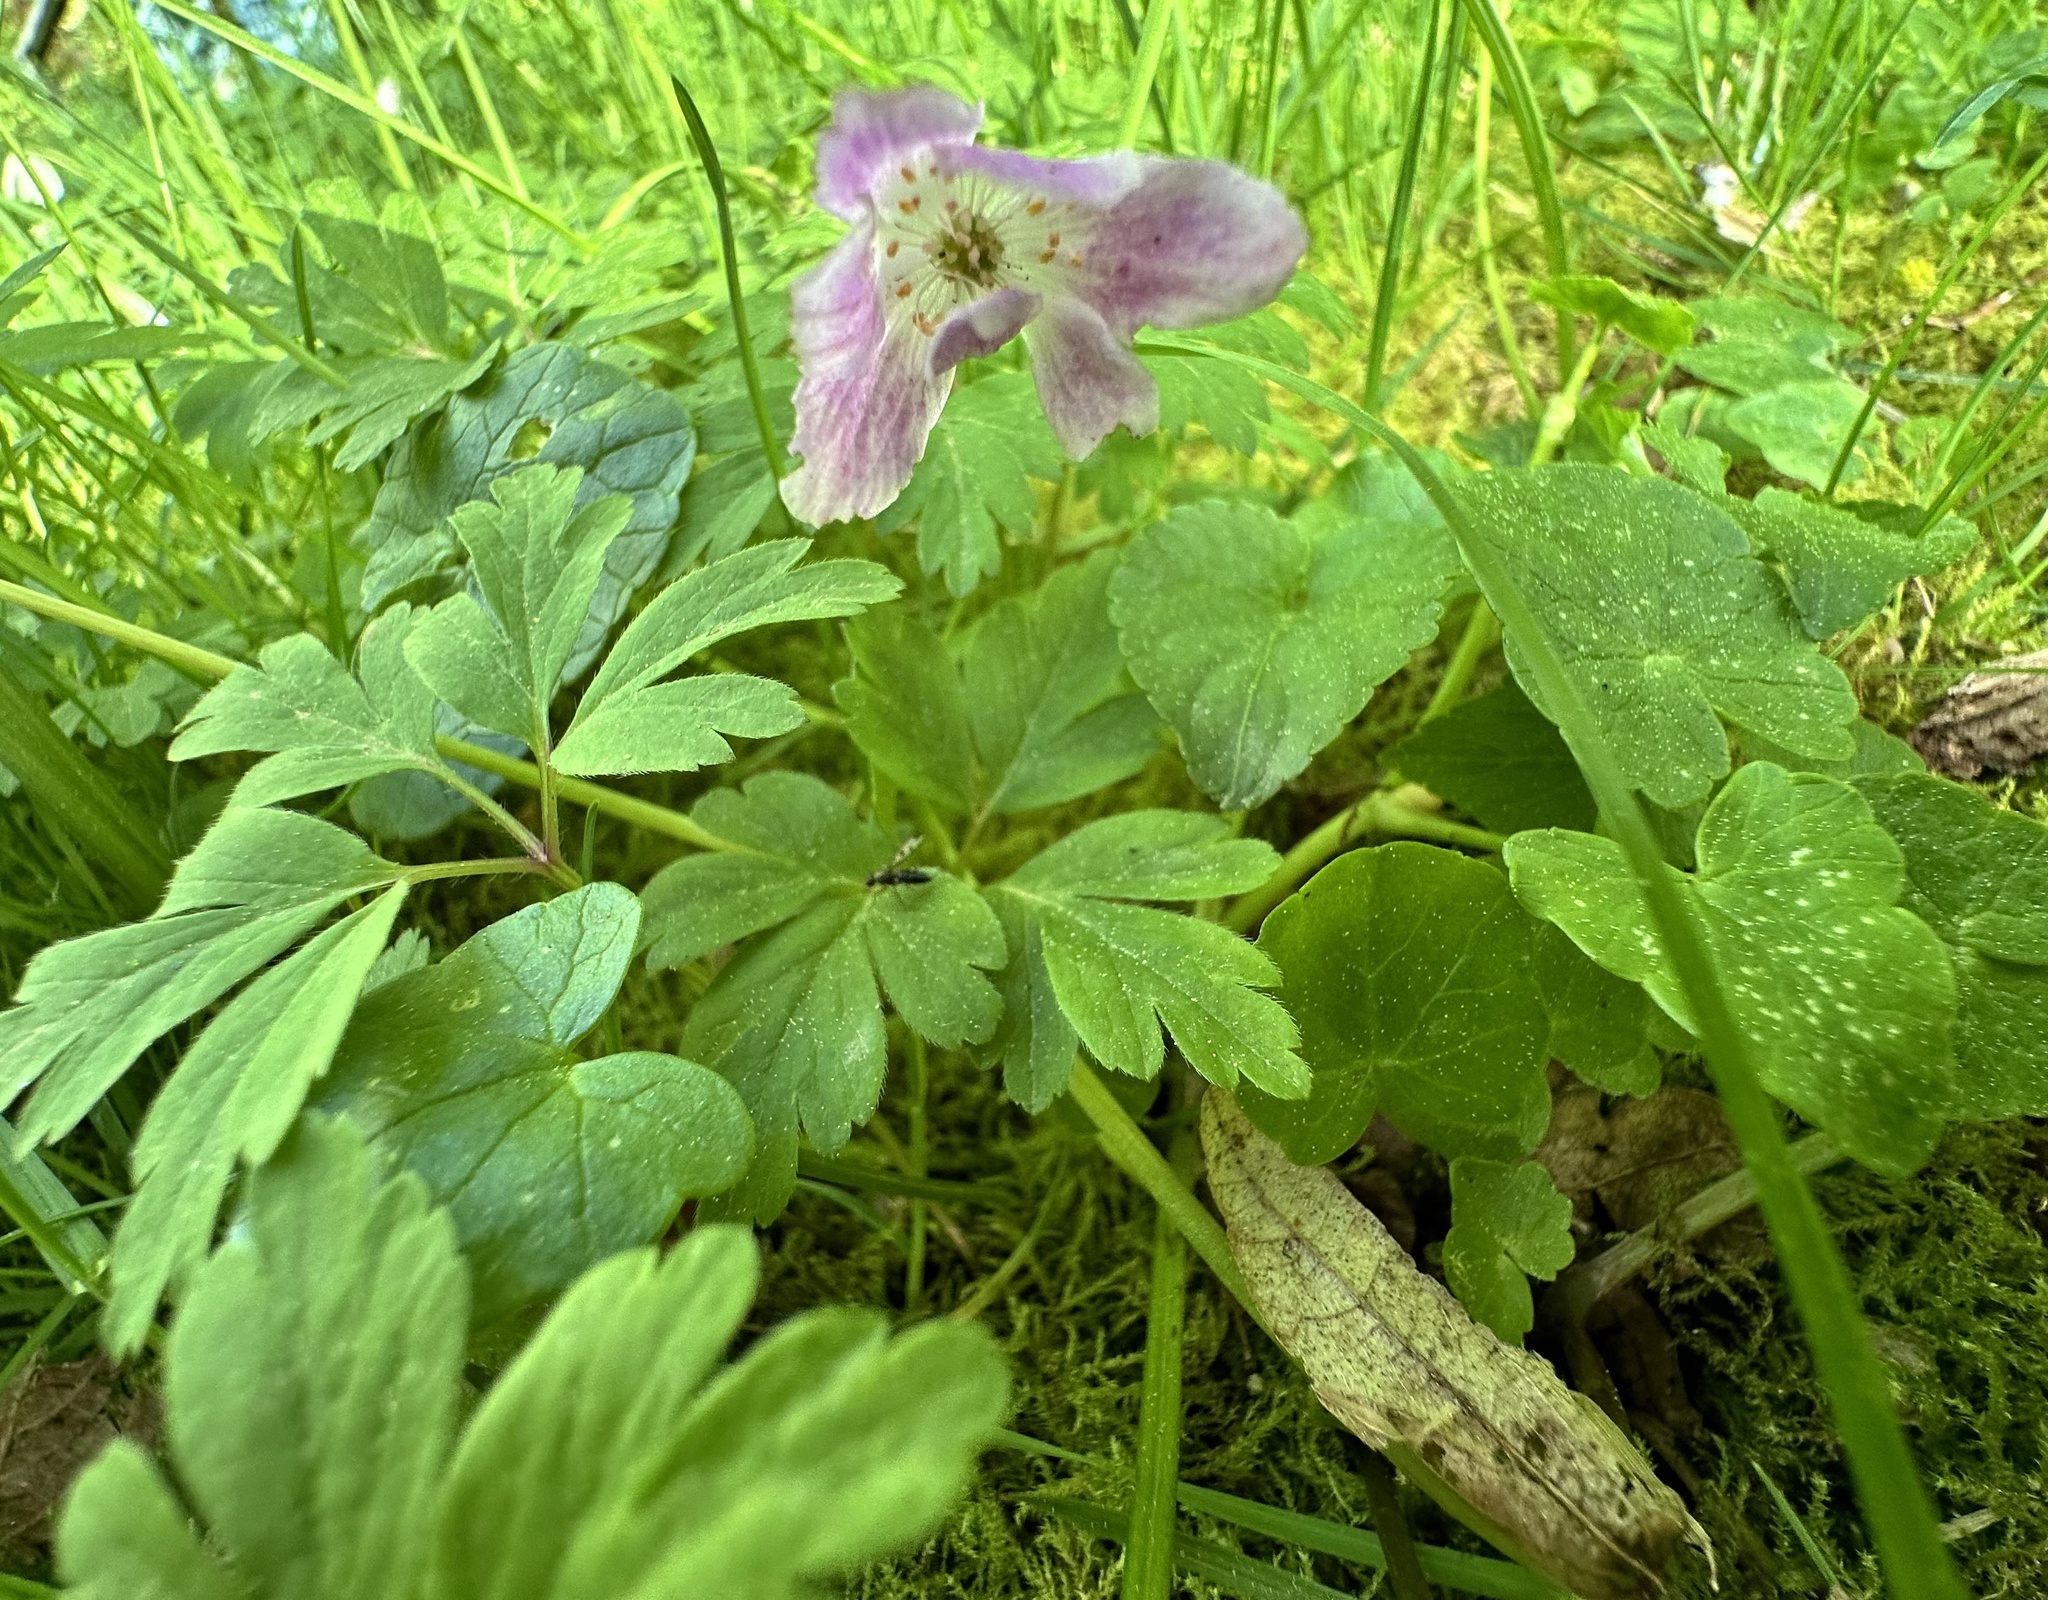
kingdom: Plantae
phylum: Tracheophyta
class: Magnoliopsida
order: Ranunculales
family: Ranunculaceae
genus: Anemone
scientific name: Anemone nemorosa
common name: Wood anemone
